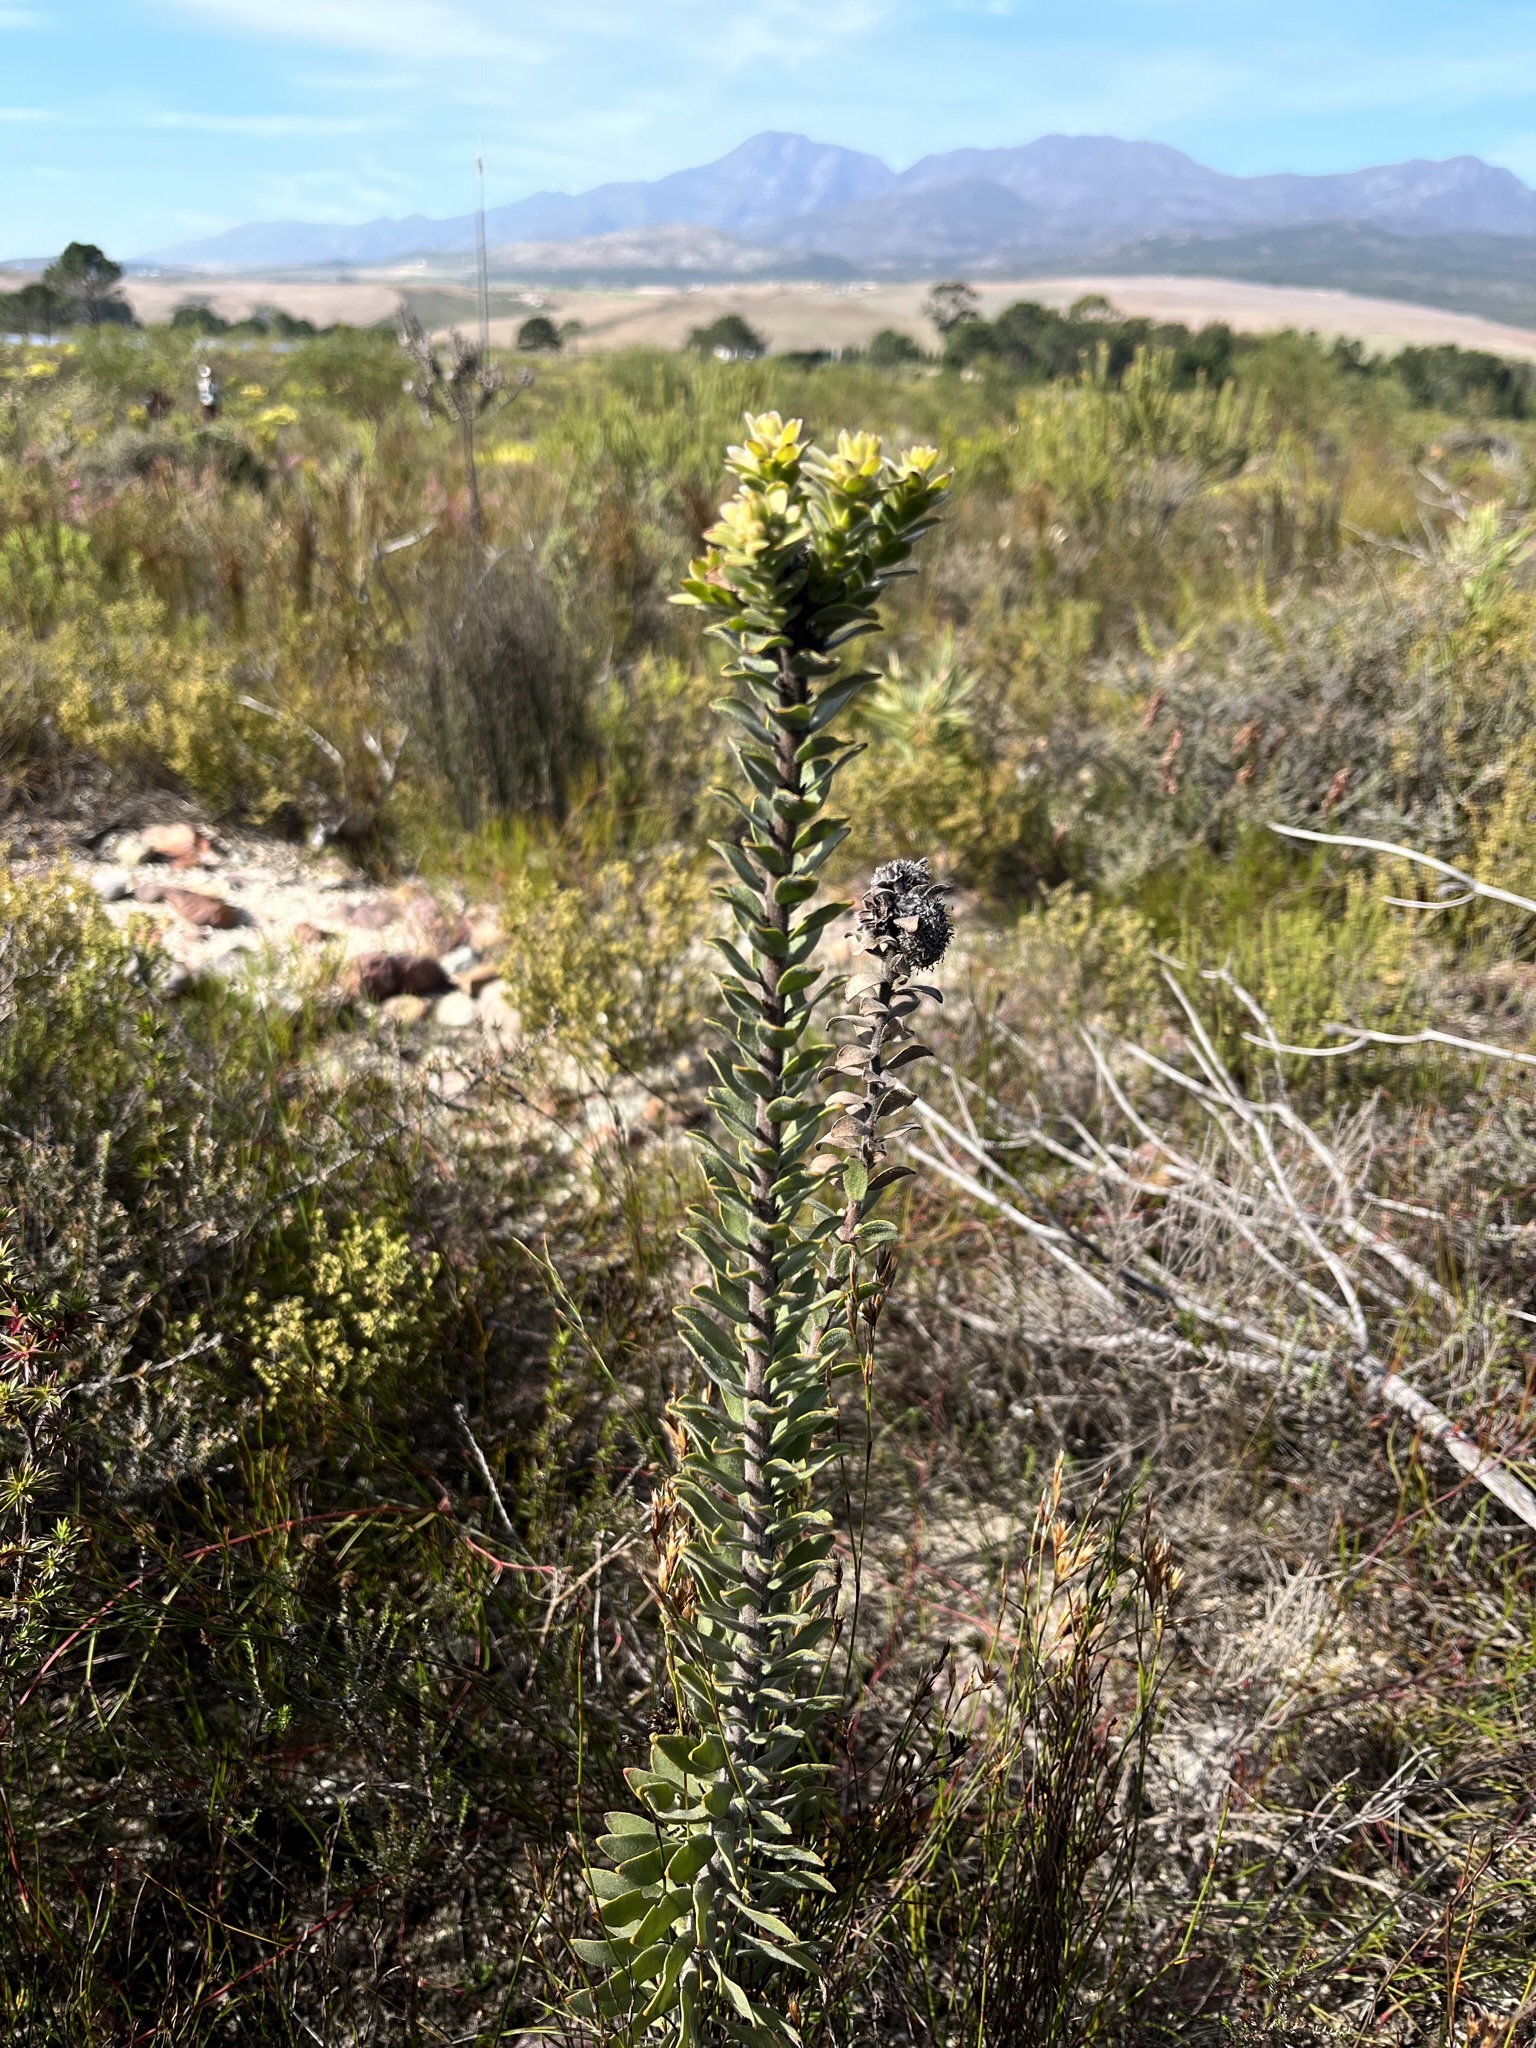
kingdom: Plantae
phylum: Tracheophyta
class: Magnoliopsida
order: Proteales
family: Proteaceae
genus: Leucospermum
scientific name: Leucospermum truncatulum
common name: Oval-leaf pincushion
